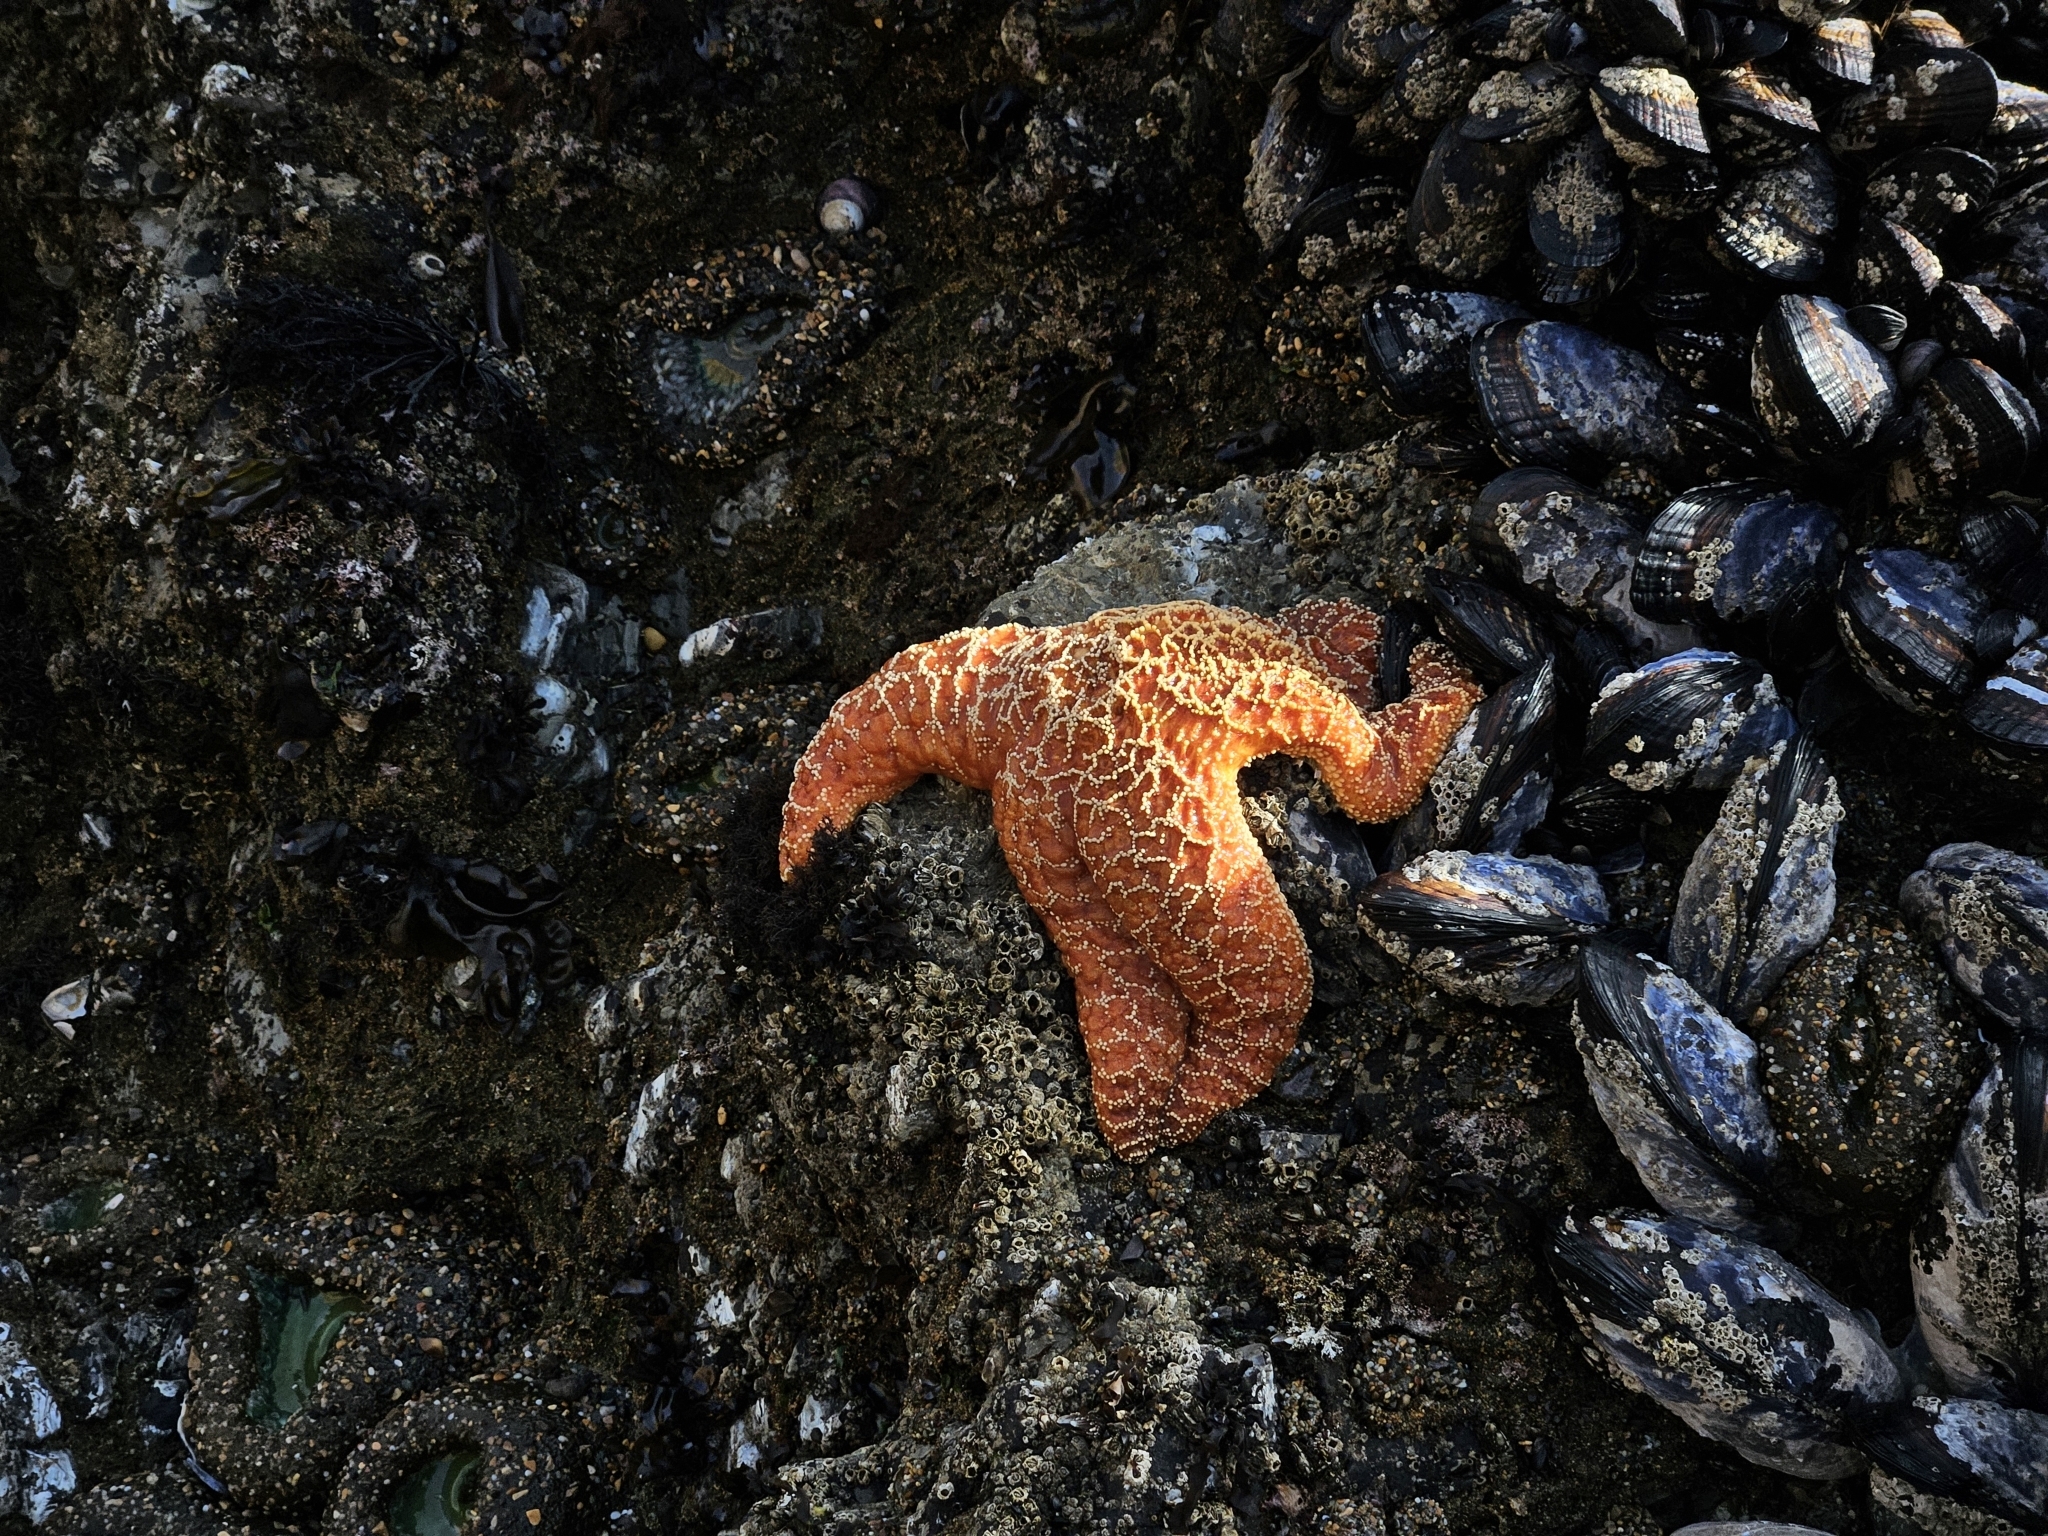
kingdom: Animalia
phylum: Echinodermata
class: Asteroidea
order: Forcipulatida
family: Asteriidae
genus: Pisaster
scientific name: Pisaster ochraceus
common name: Ochre stars
